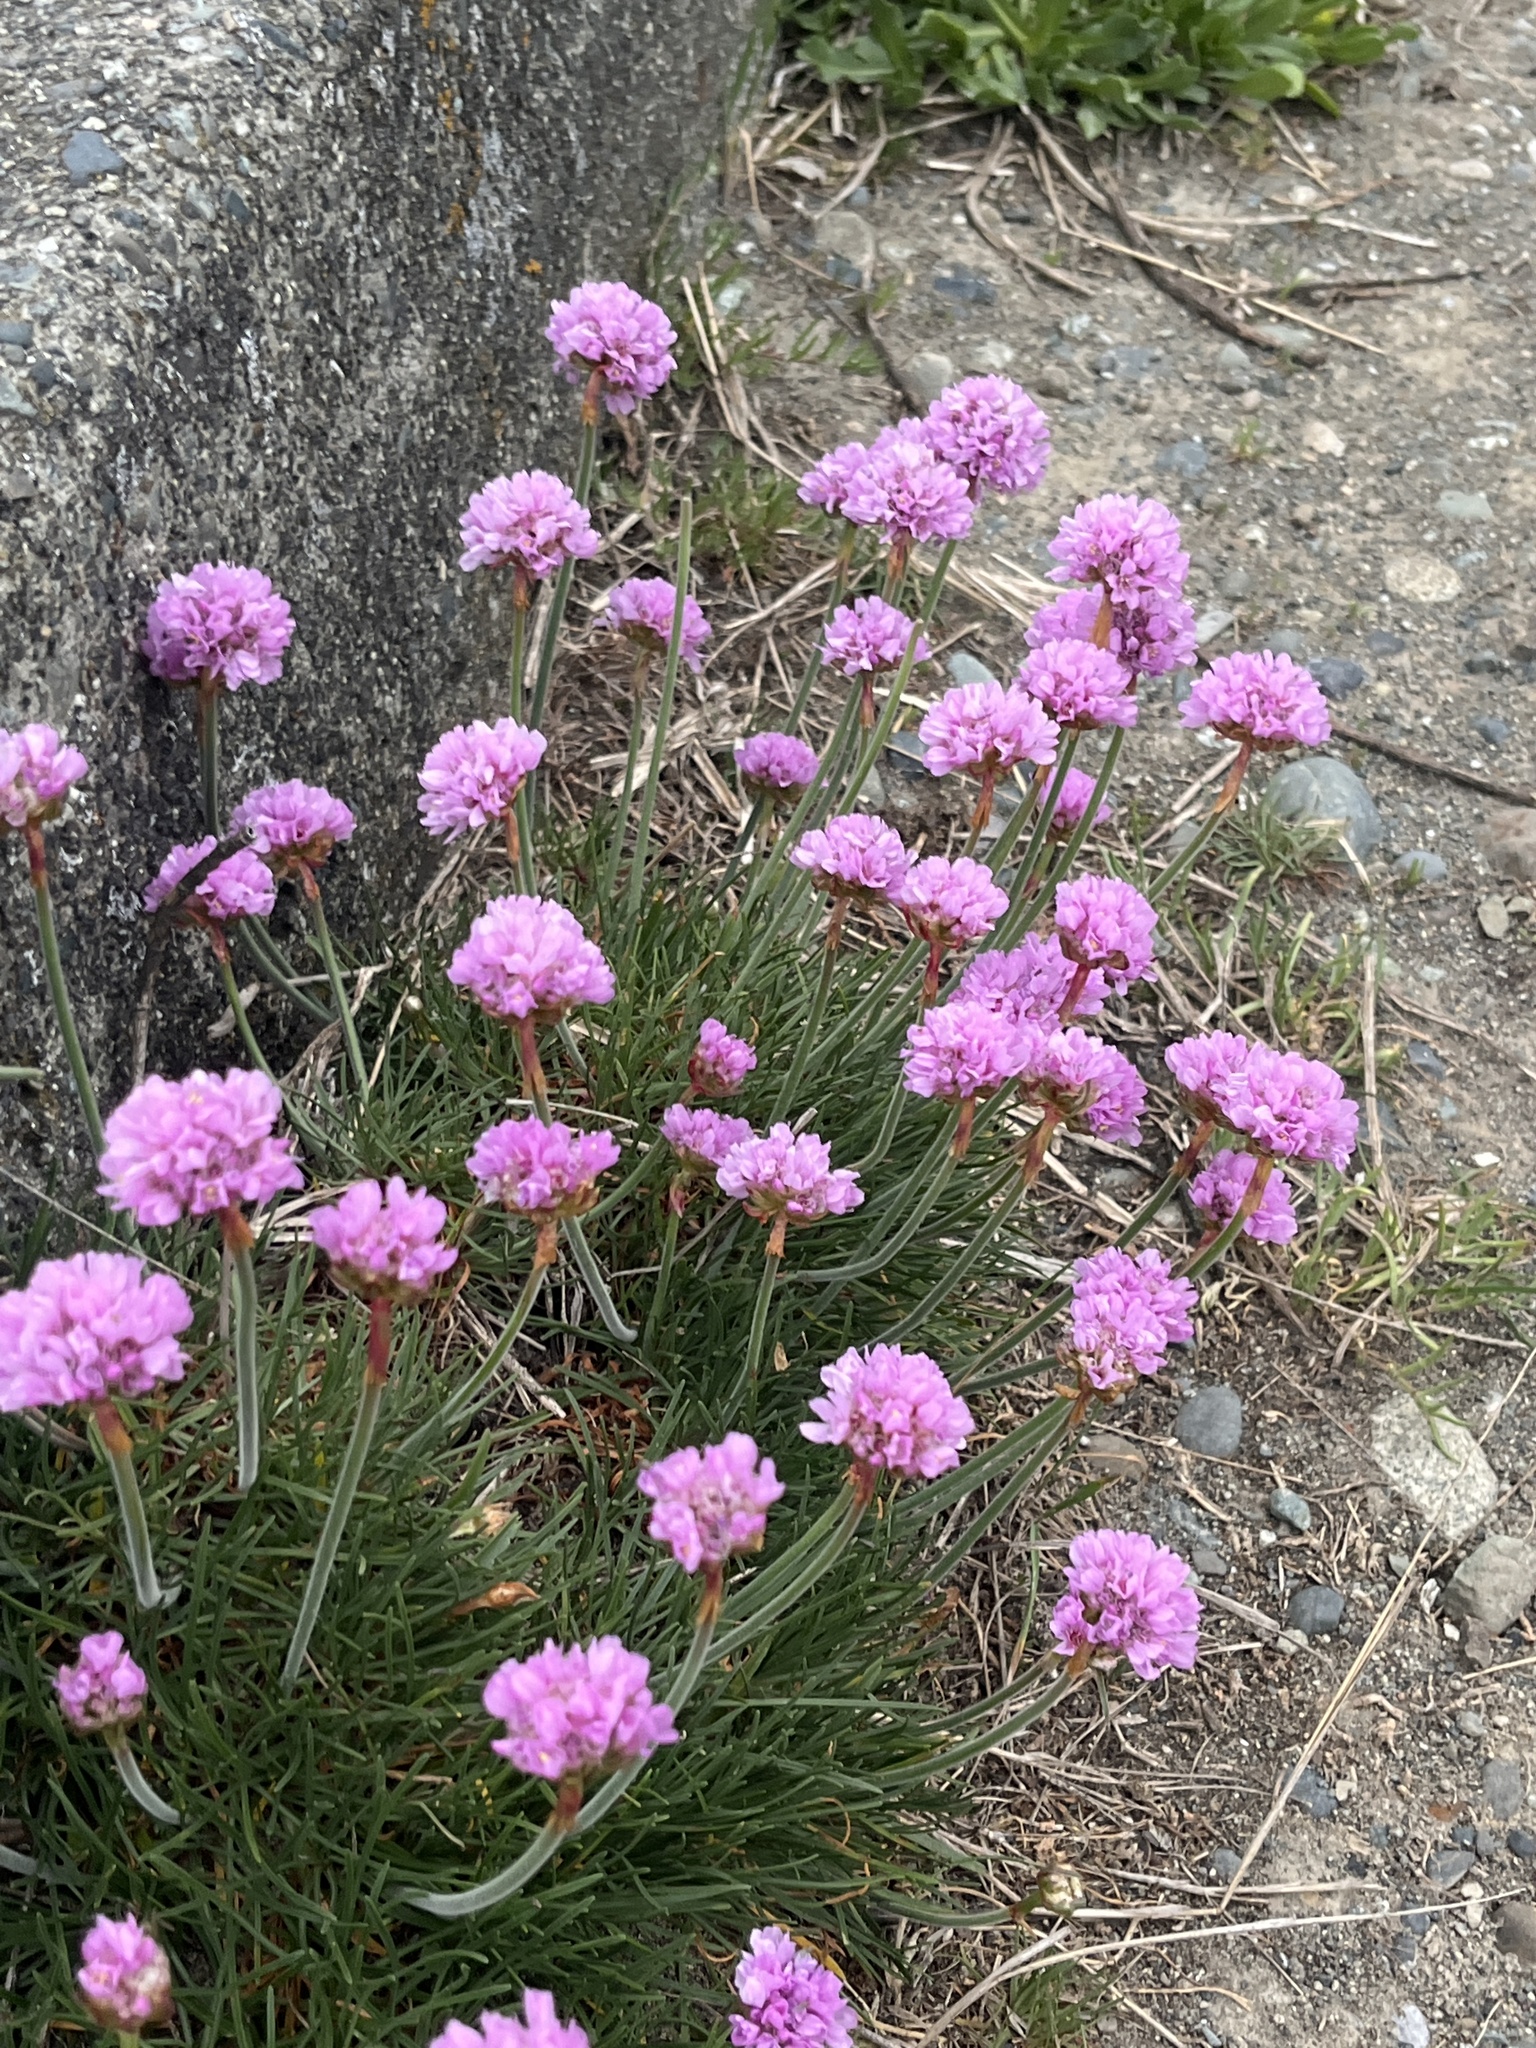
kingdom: Plantae
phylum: Tracheophyta
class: Magnoliopsida
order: Caryophyllales
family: Plumbaginaceae
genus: Armeria
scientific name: Armeria maritima
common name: Thrift
